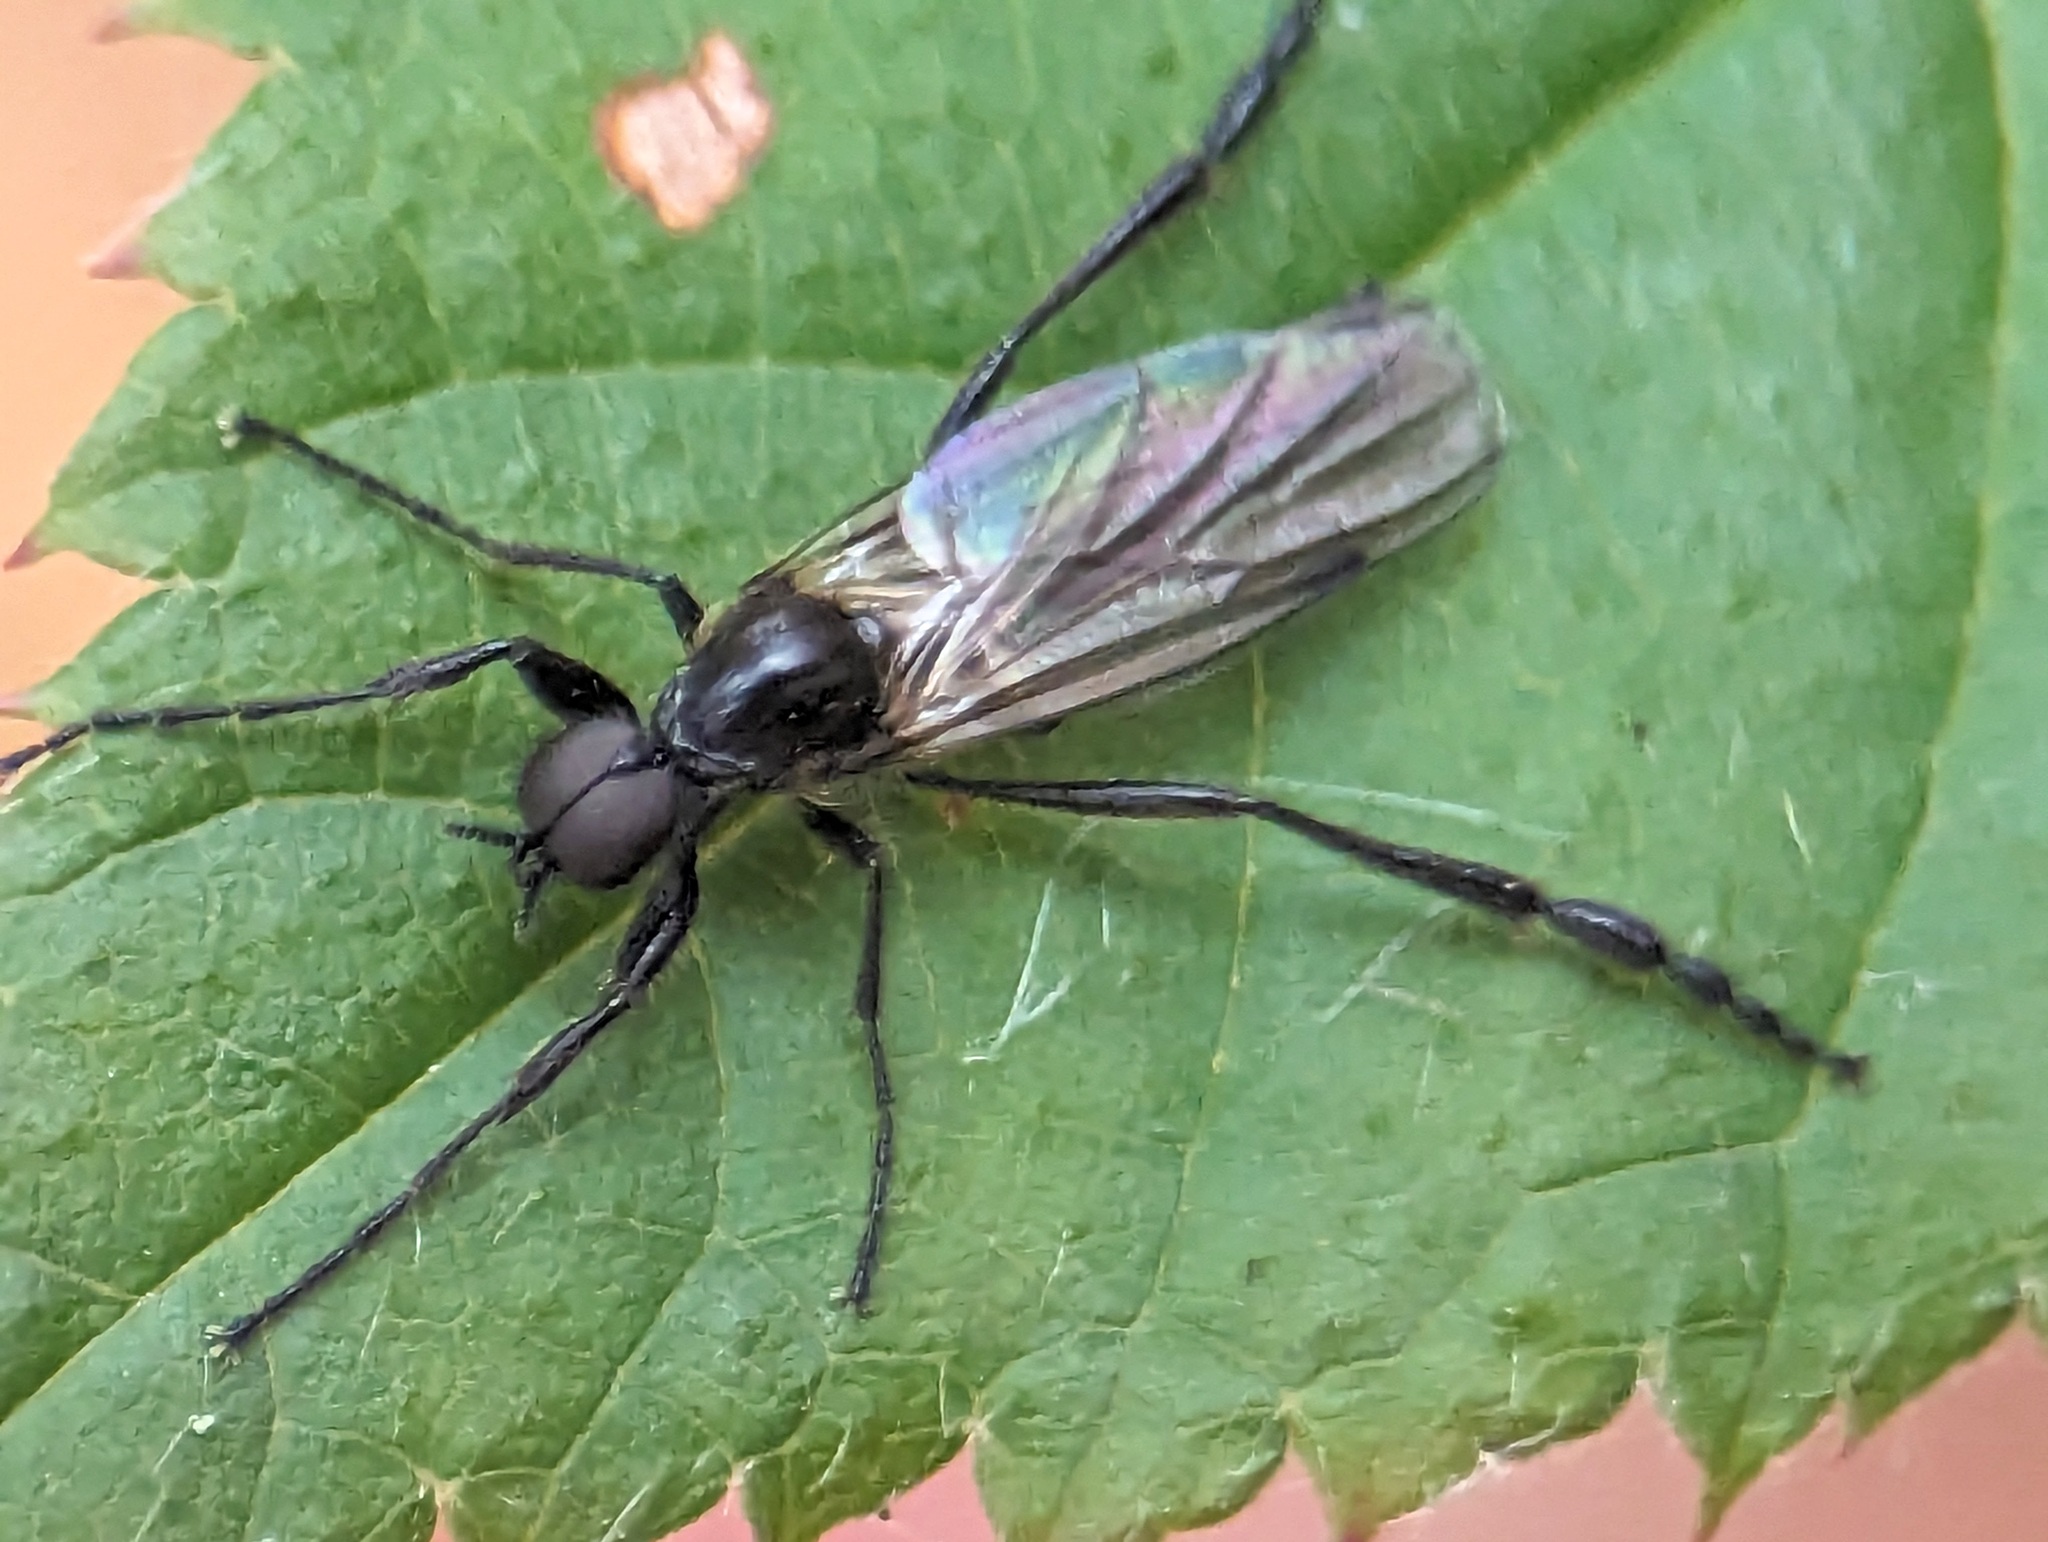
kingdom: Animalia
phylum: Arthropoda
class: Insecta
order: Diptera
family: Bibionidae
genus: Bibio
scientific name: Bibio longipes
